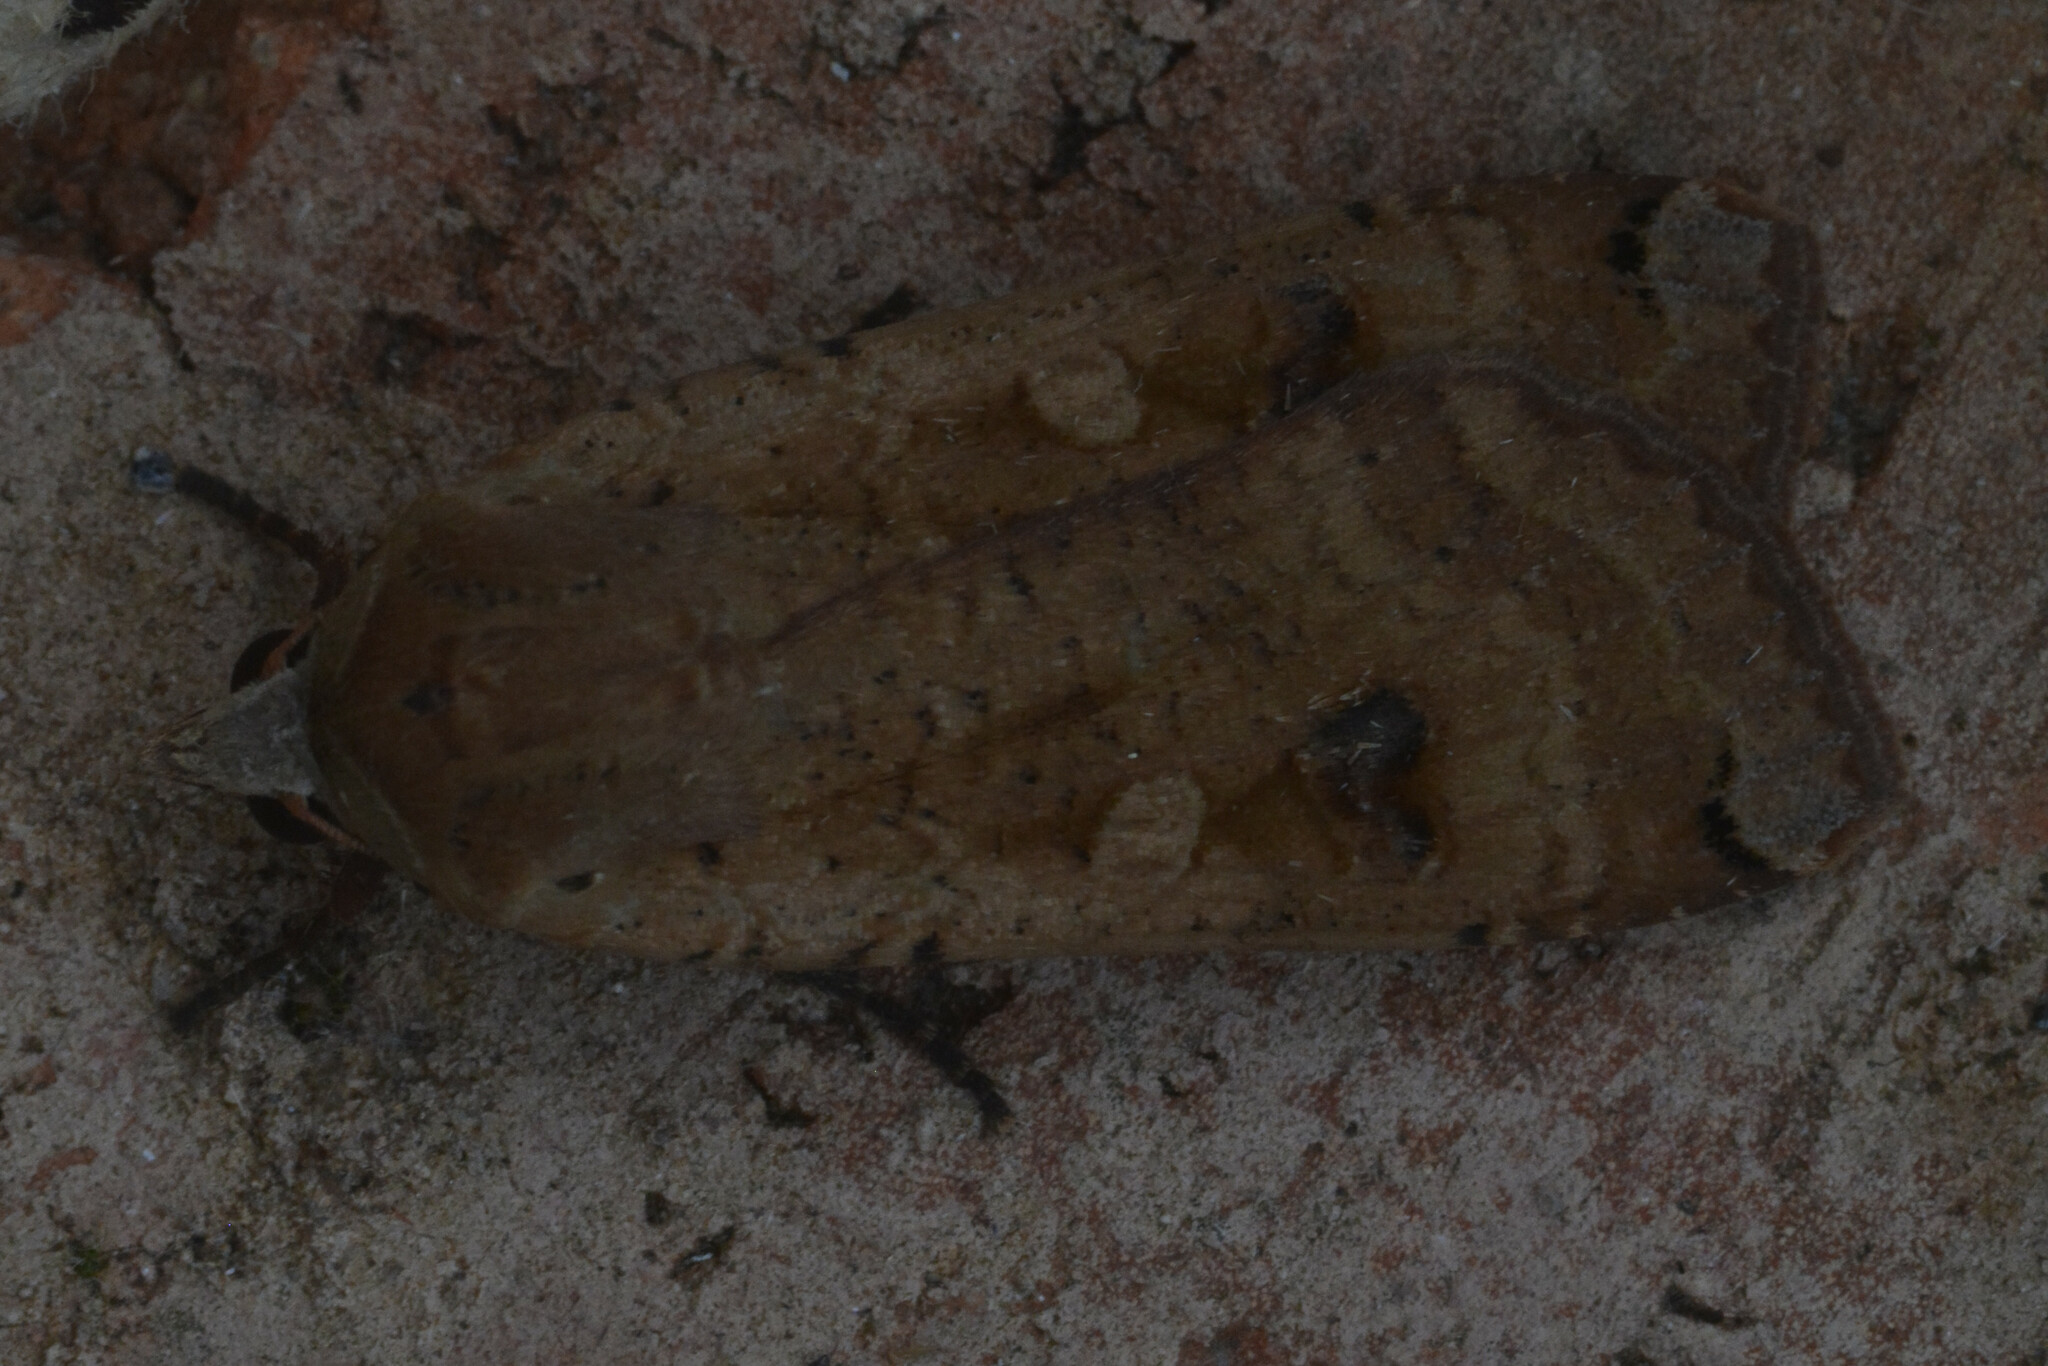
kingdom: Animalia
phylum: Arthropoda
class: Insecta
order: Lepidoptera
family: Noctuidae
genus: Noctua
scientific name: Noctua pronuba
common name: Large yellow underwing
